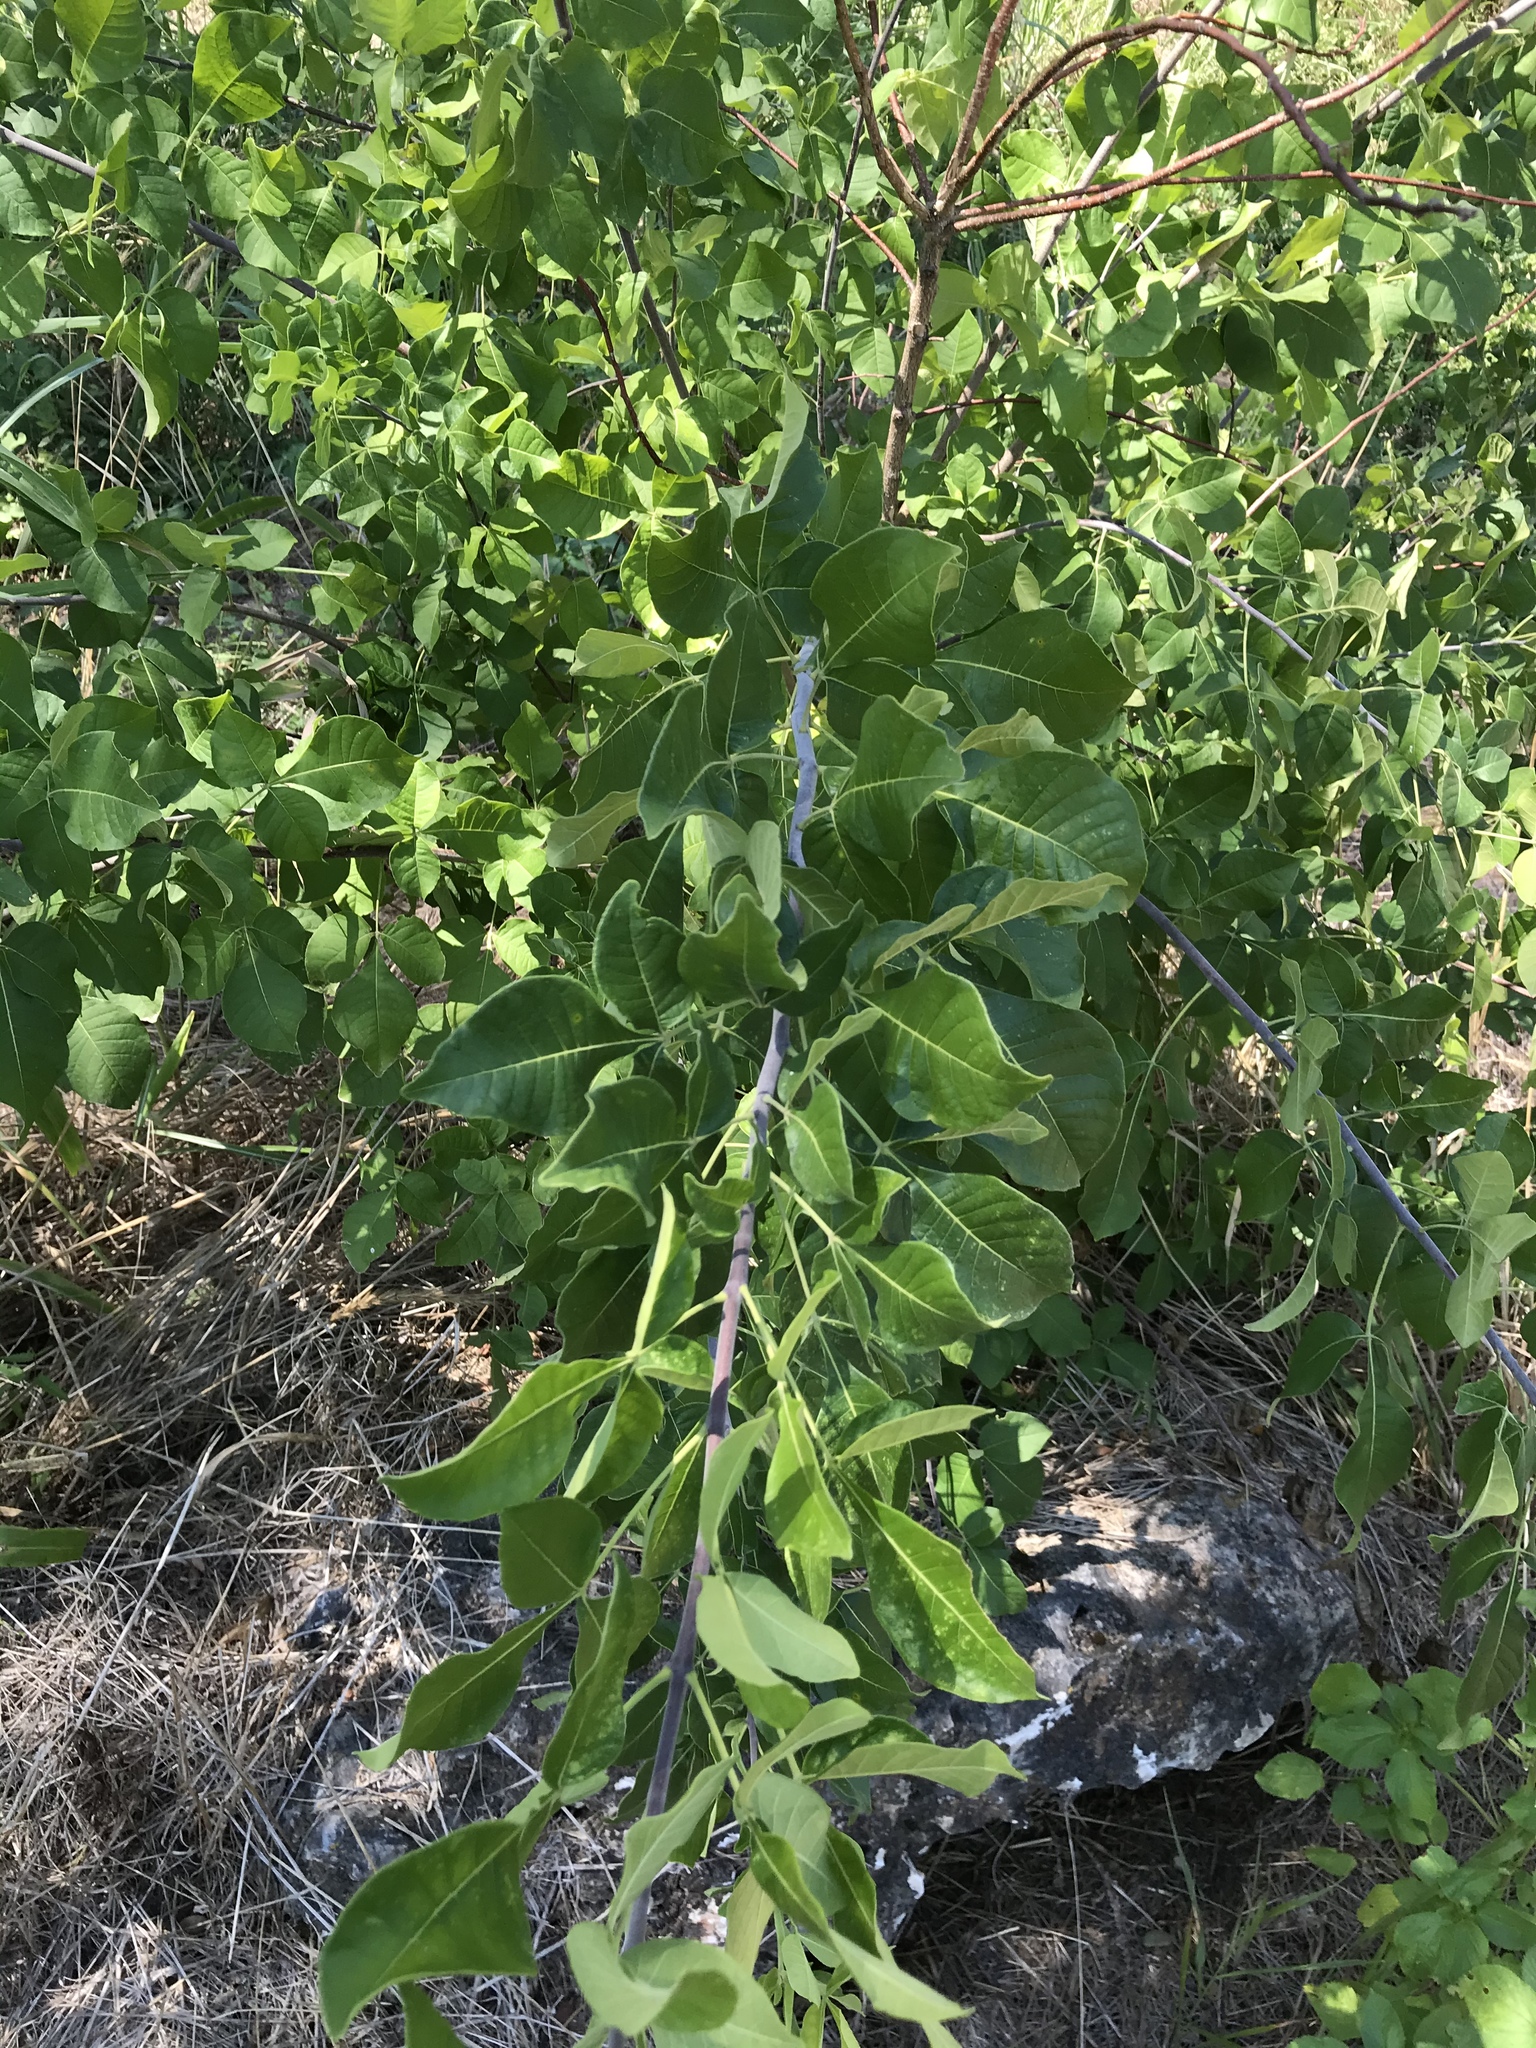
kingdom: Plantae
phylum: Tracheophyta
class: Magnoliopsida
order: Sapindales
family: Rutaceae
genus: Ptelea
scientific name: Ptelea trifoliata
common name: Common hop-tree
